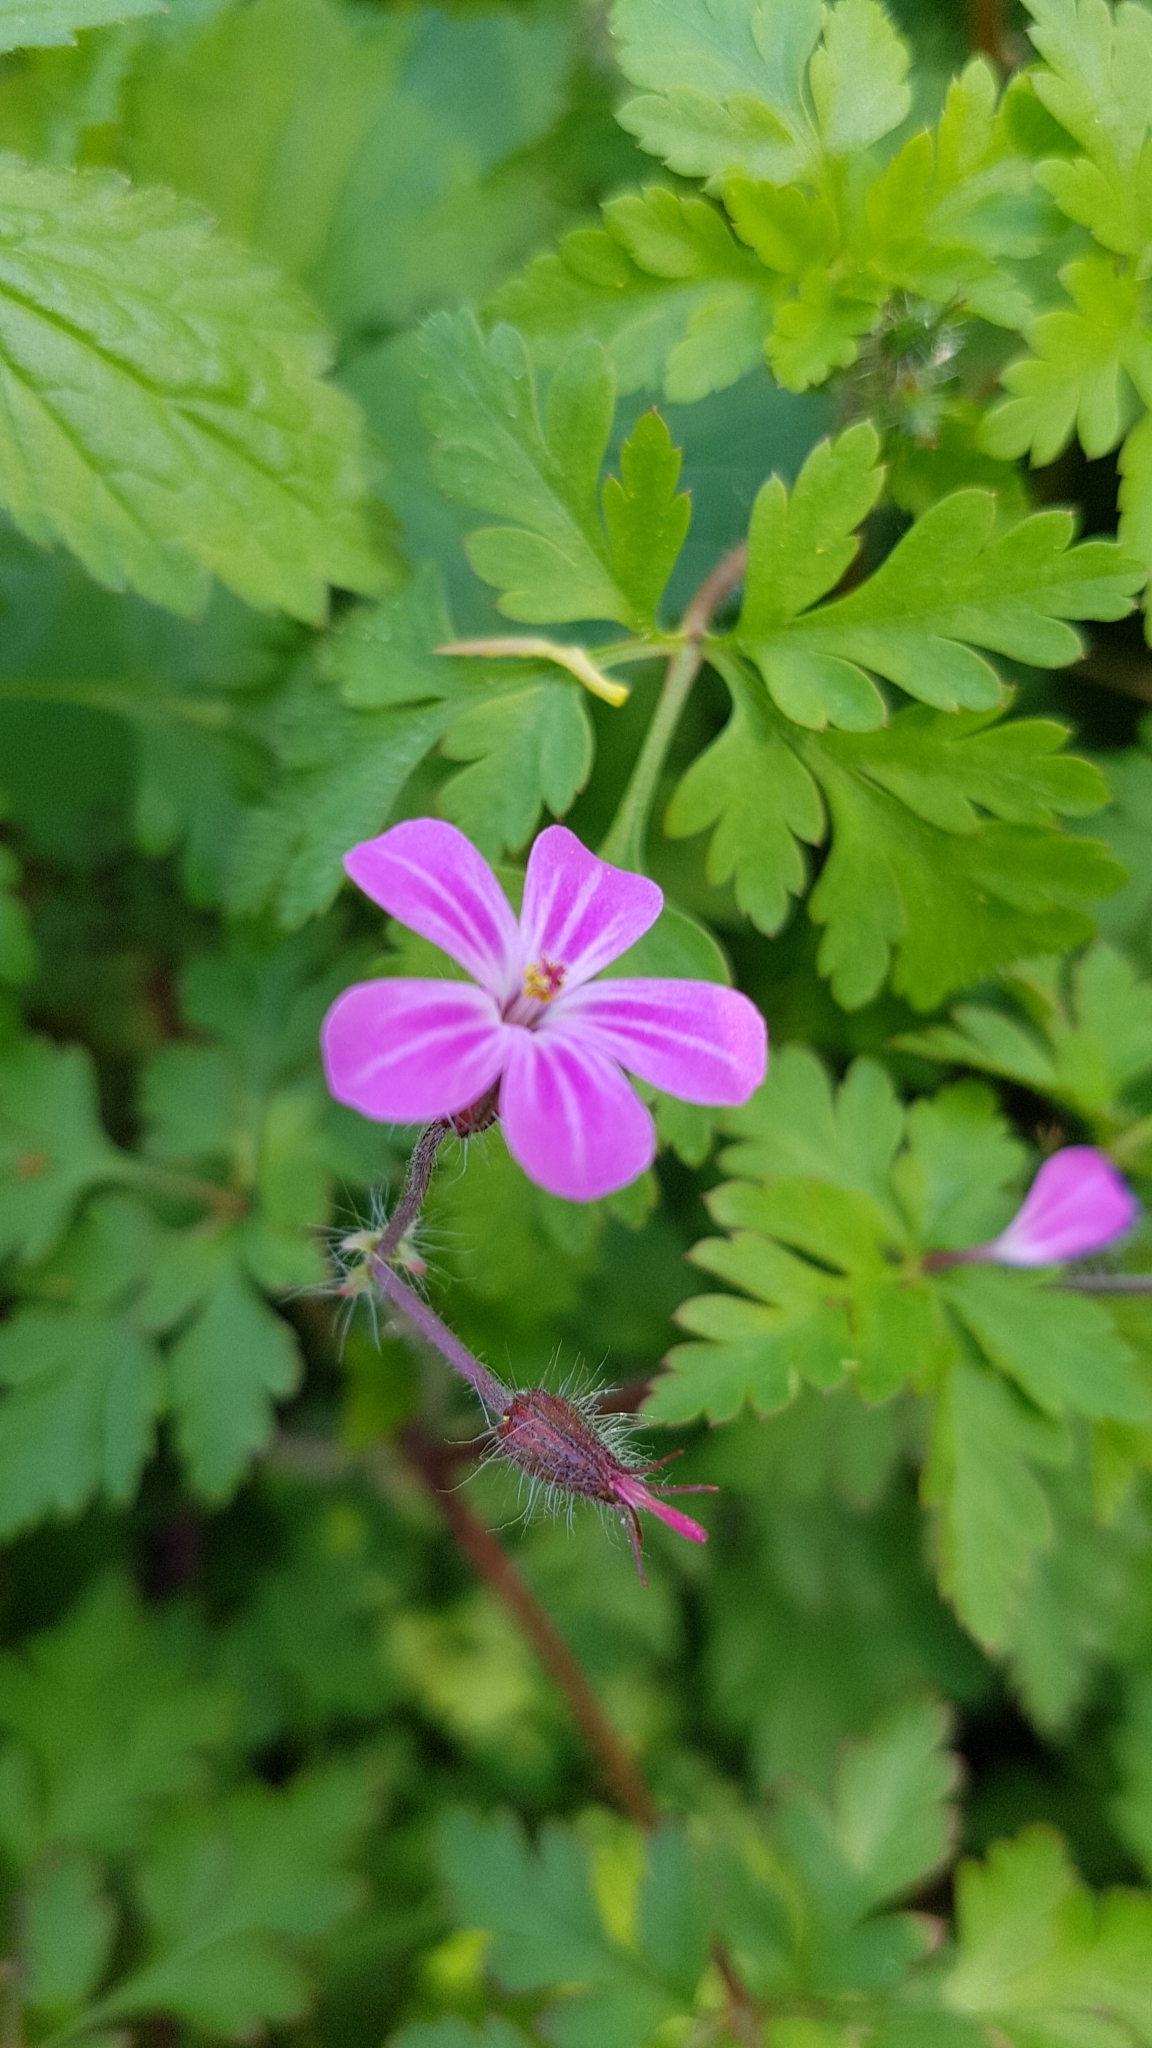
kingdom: Plantae
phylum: Tracheophyta
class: Magnoliopsida
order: Geraniales
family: Geraniaceae
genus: Geranium
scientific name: Geranium robertianum
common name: Herb-robert
